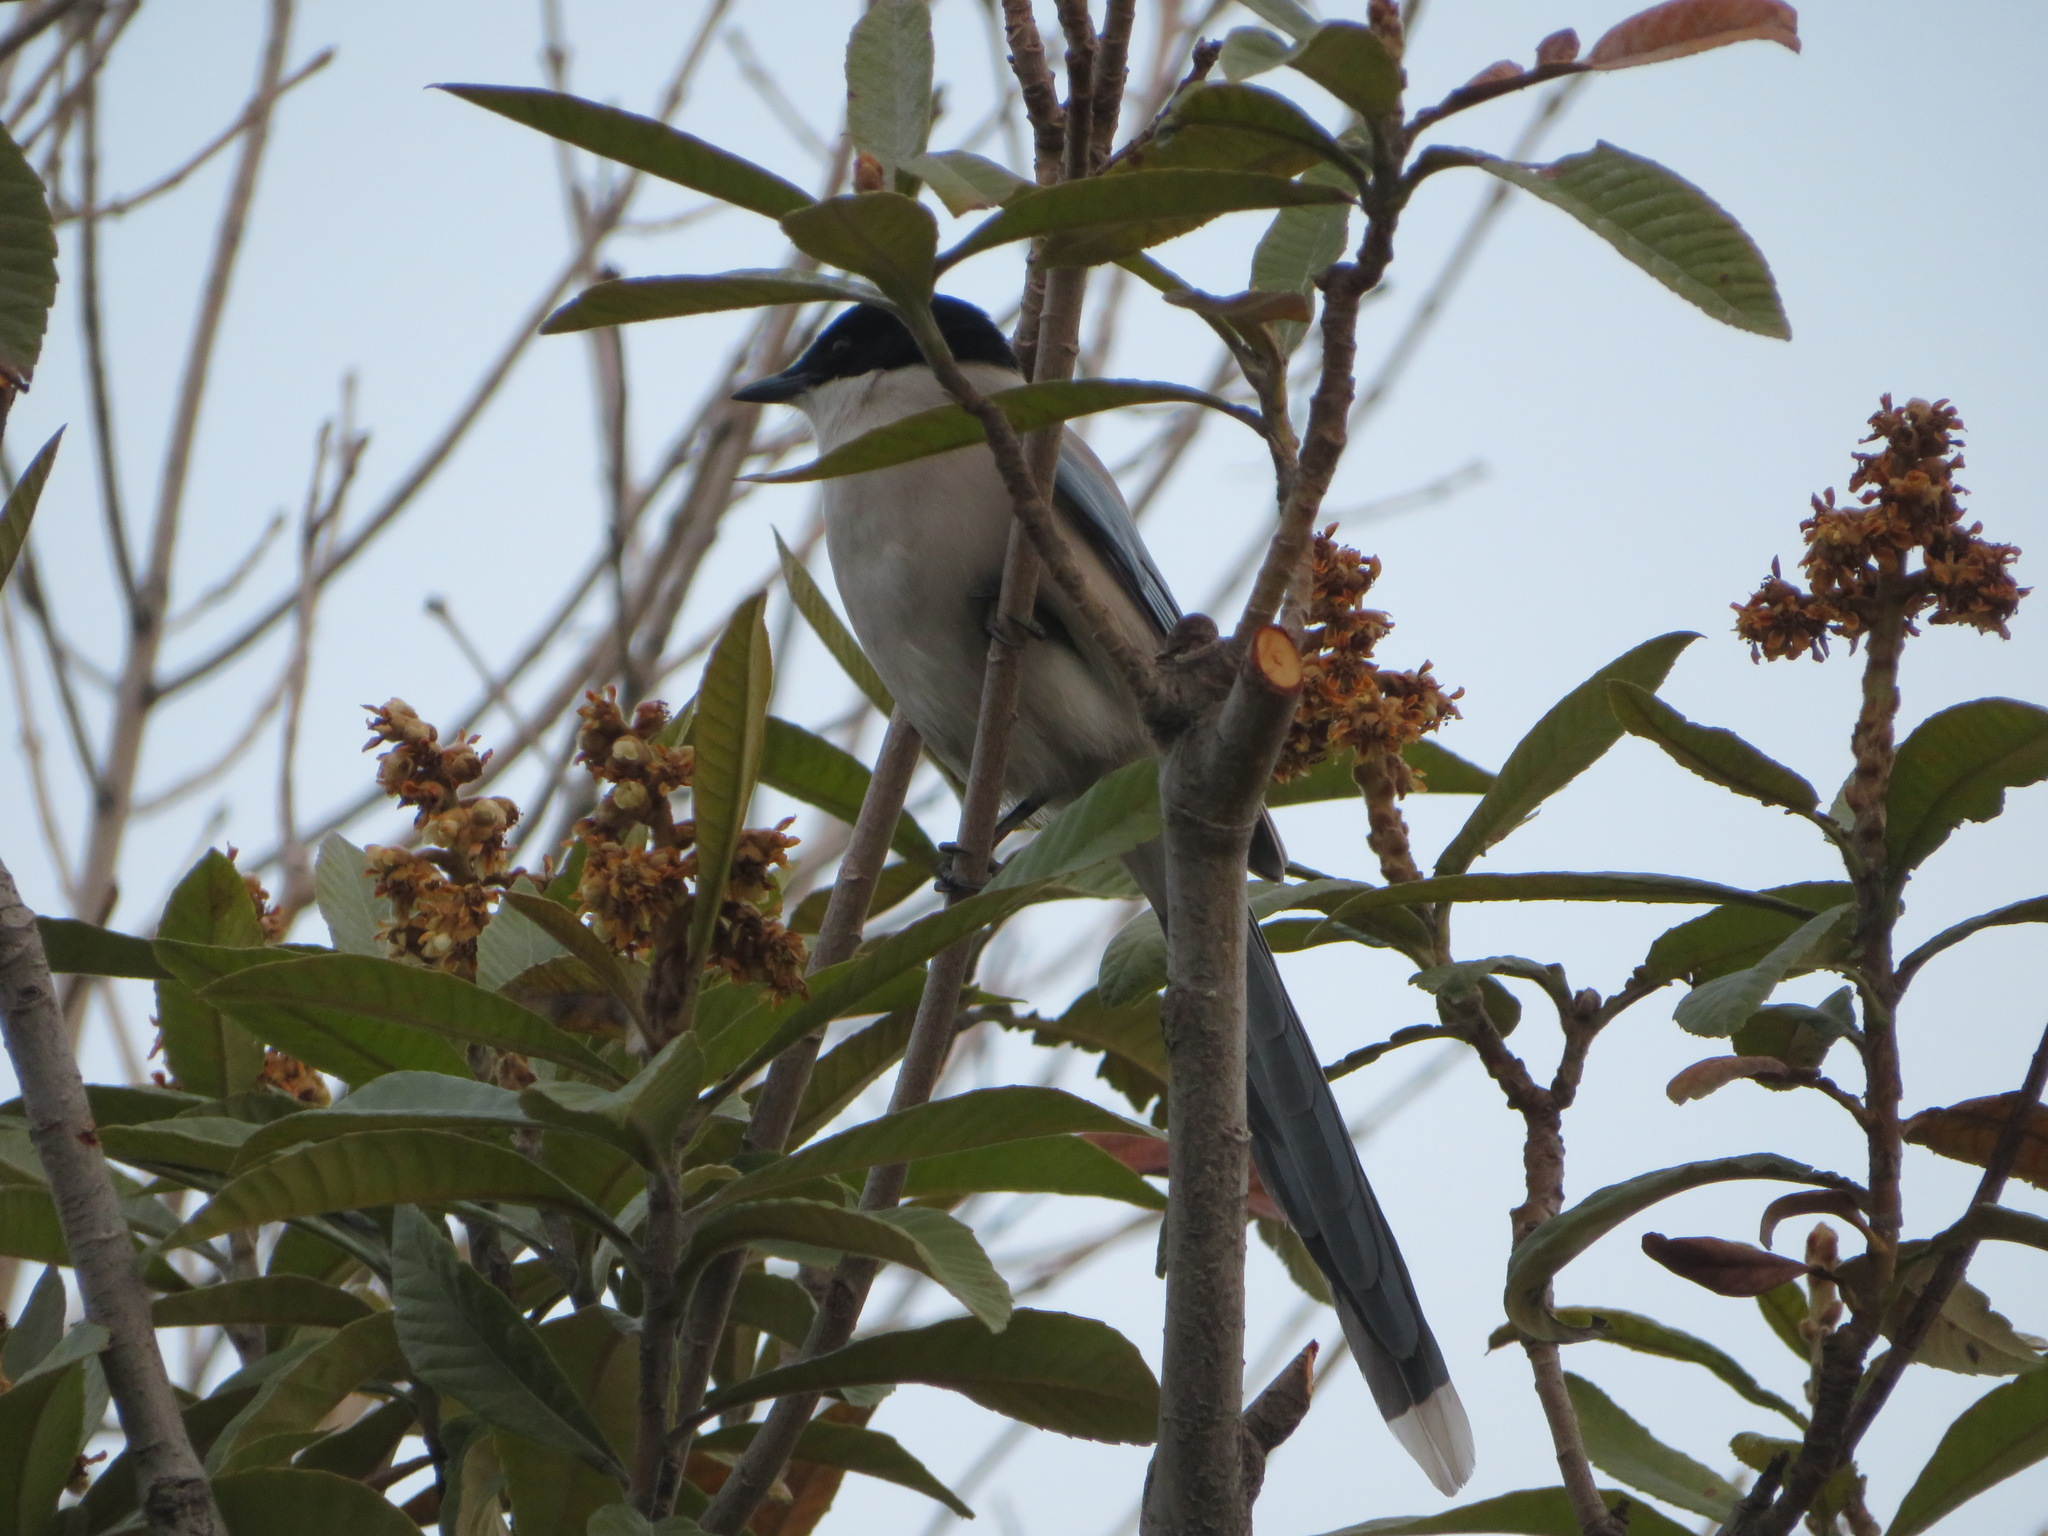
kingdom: Animalia
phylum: Chordata
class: Aves
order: Passeriformes
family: Corvidae
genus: Cyanopica
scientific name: Cyanopica cyanus
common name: Azure-winged magpie
